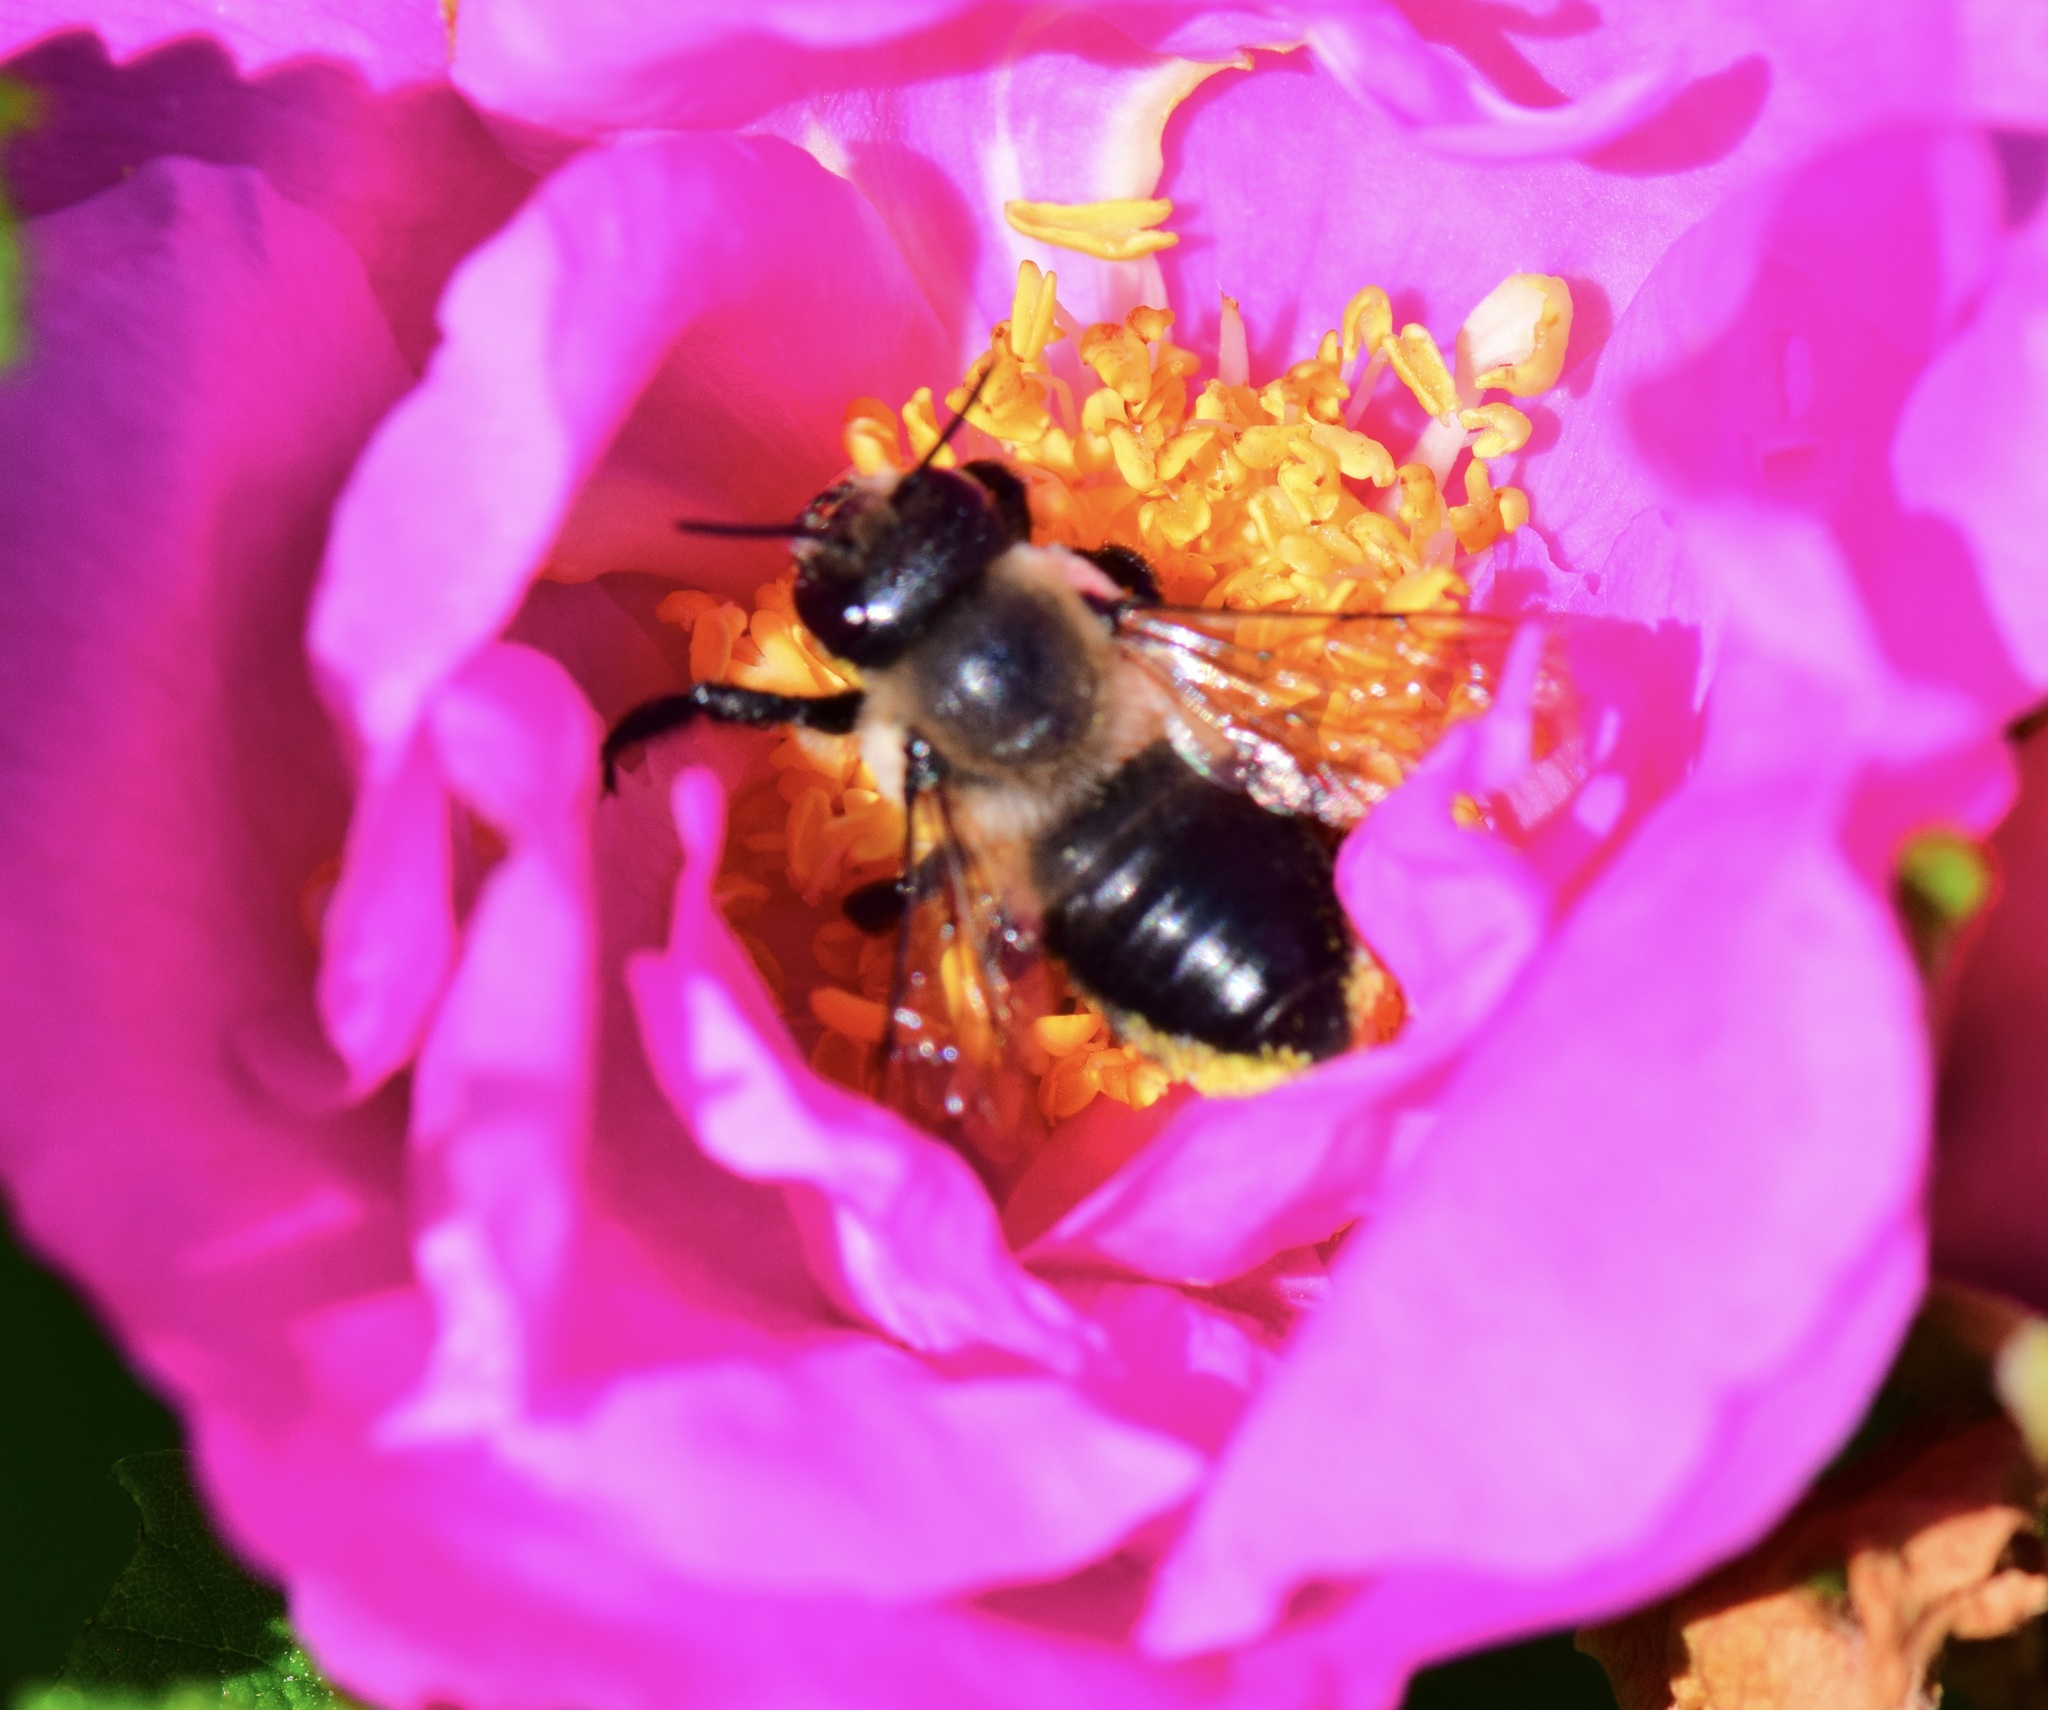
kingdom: Animalia
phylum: Arthropoda
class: Insecta
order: Hymenoptera
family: Megachilidae
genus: Megachile
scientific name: Megachile melanophaea
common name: Black-and-gray leafcutter bee
